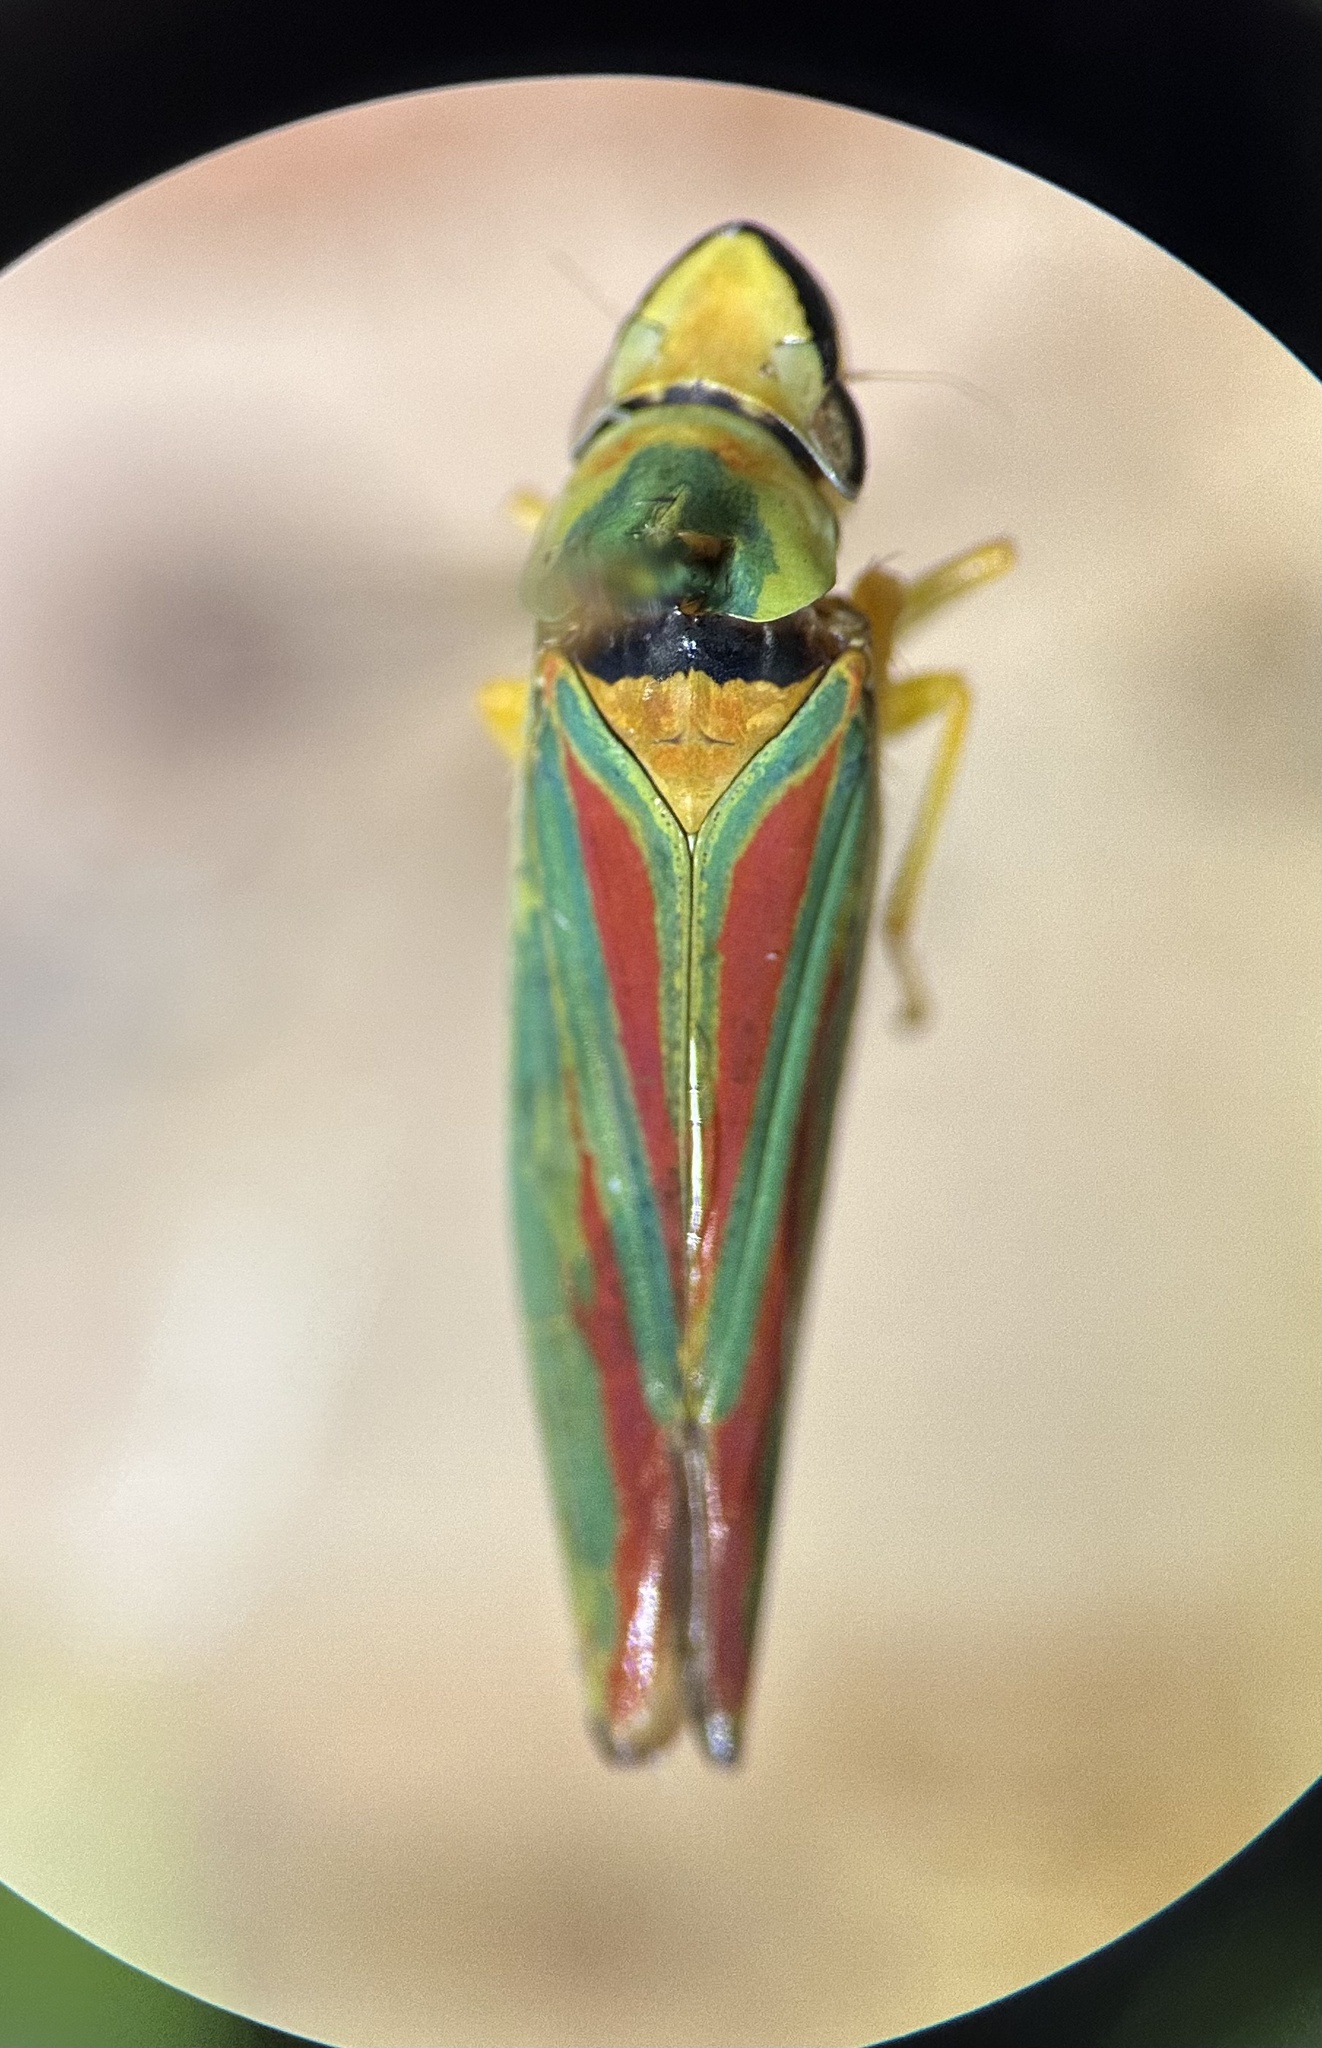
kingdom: Animalia
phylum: Arthropoda
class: Insecta
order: Hemiptera
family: Cicadellidae
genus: Graphocephala
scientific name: Graphocephala fennahi
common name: Rhododendron leafhopper
